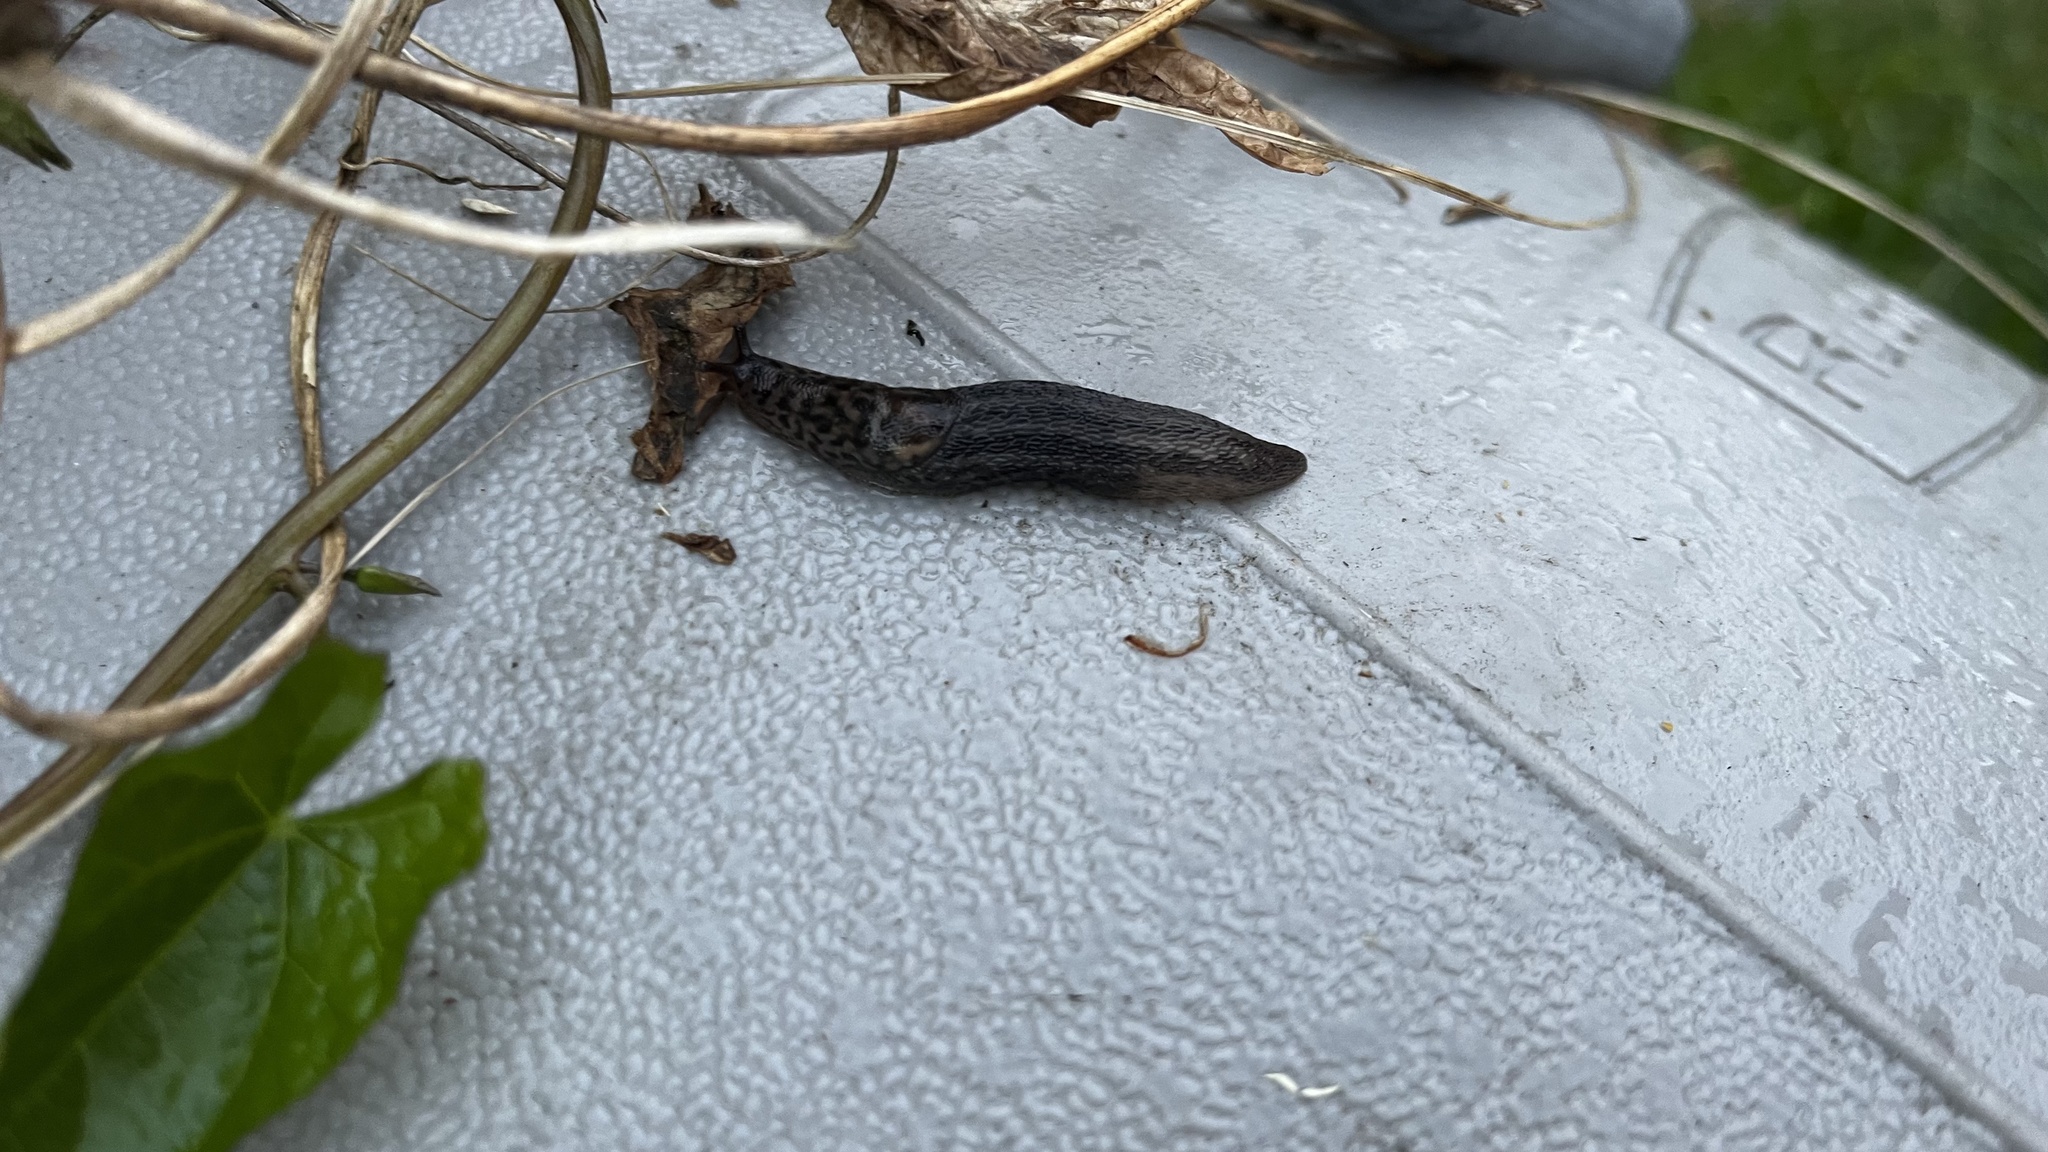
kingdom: Animalia
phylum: Mollusca
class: Gastropoda
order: Stylommatophora
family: Limacidae
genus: Limax
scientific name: Limax maximus
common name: Great grey slug
